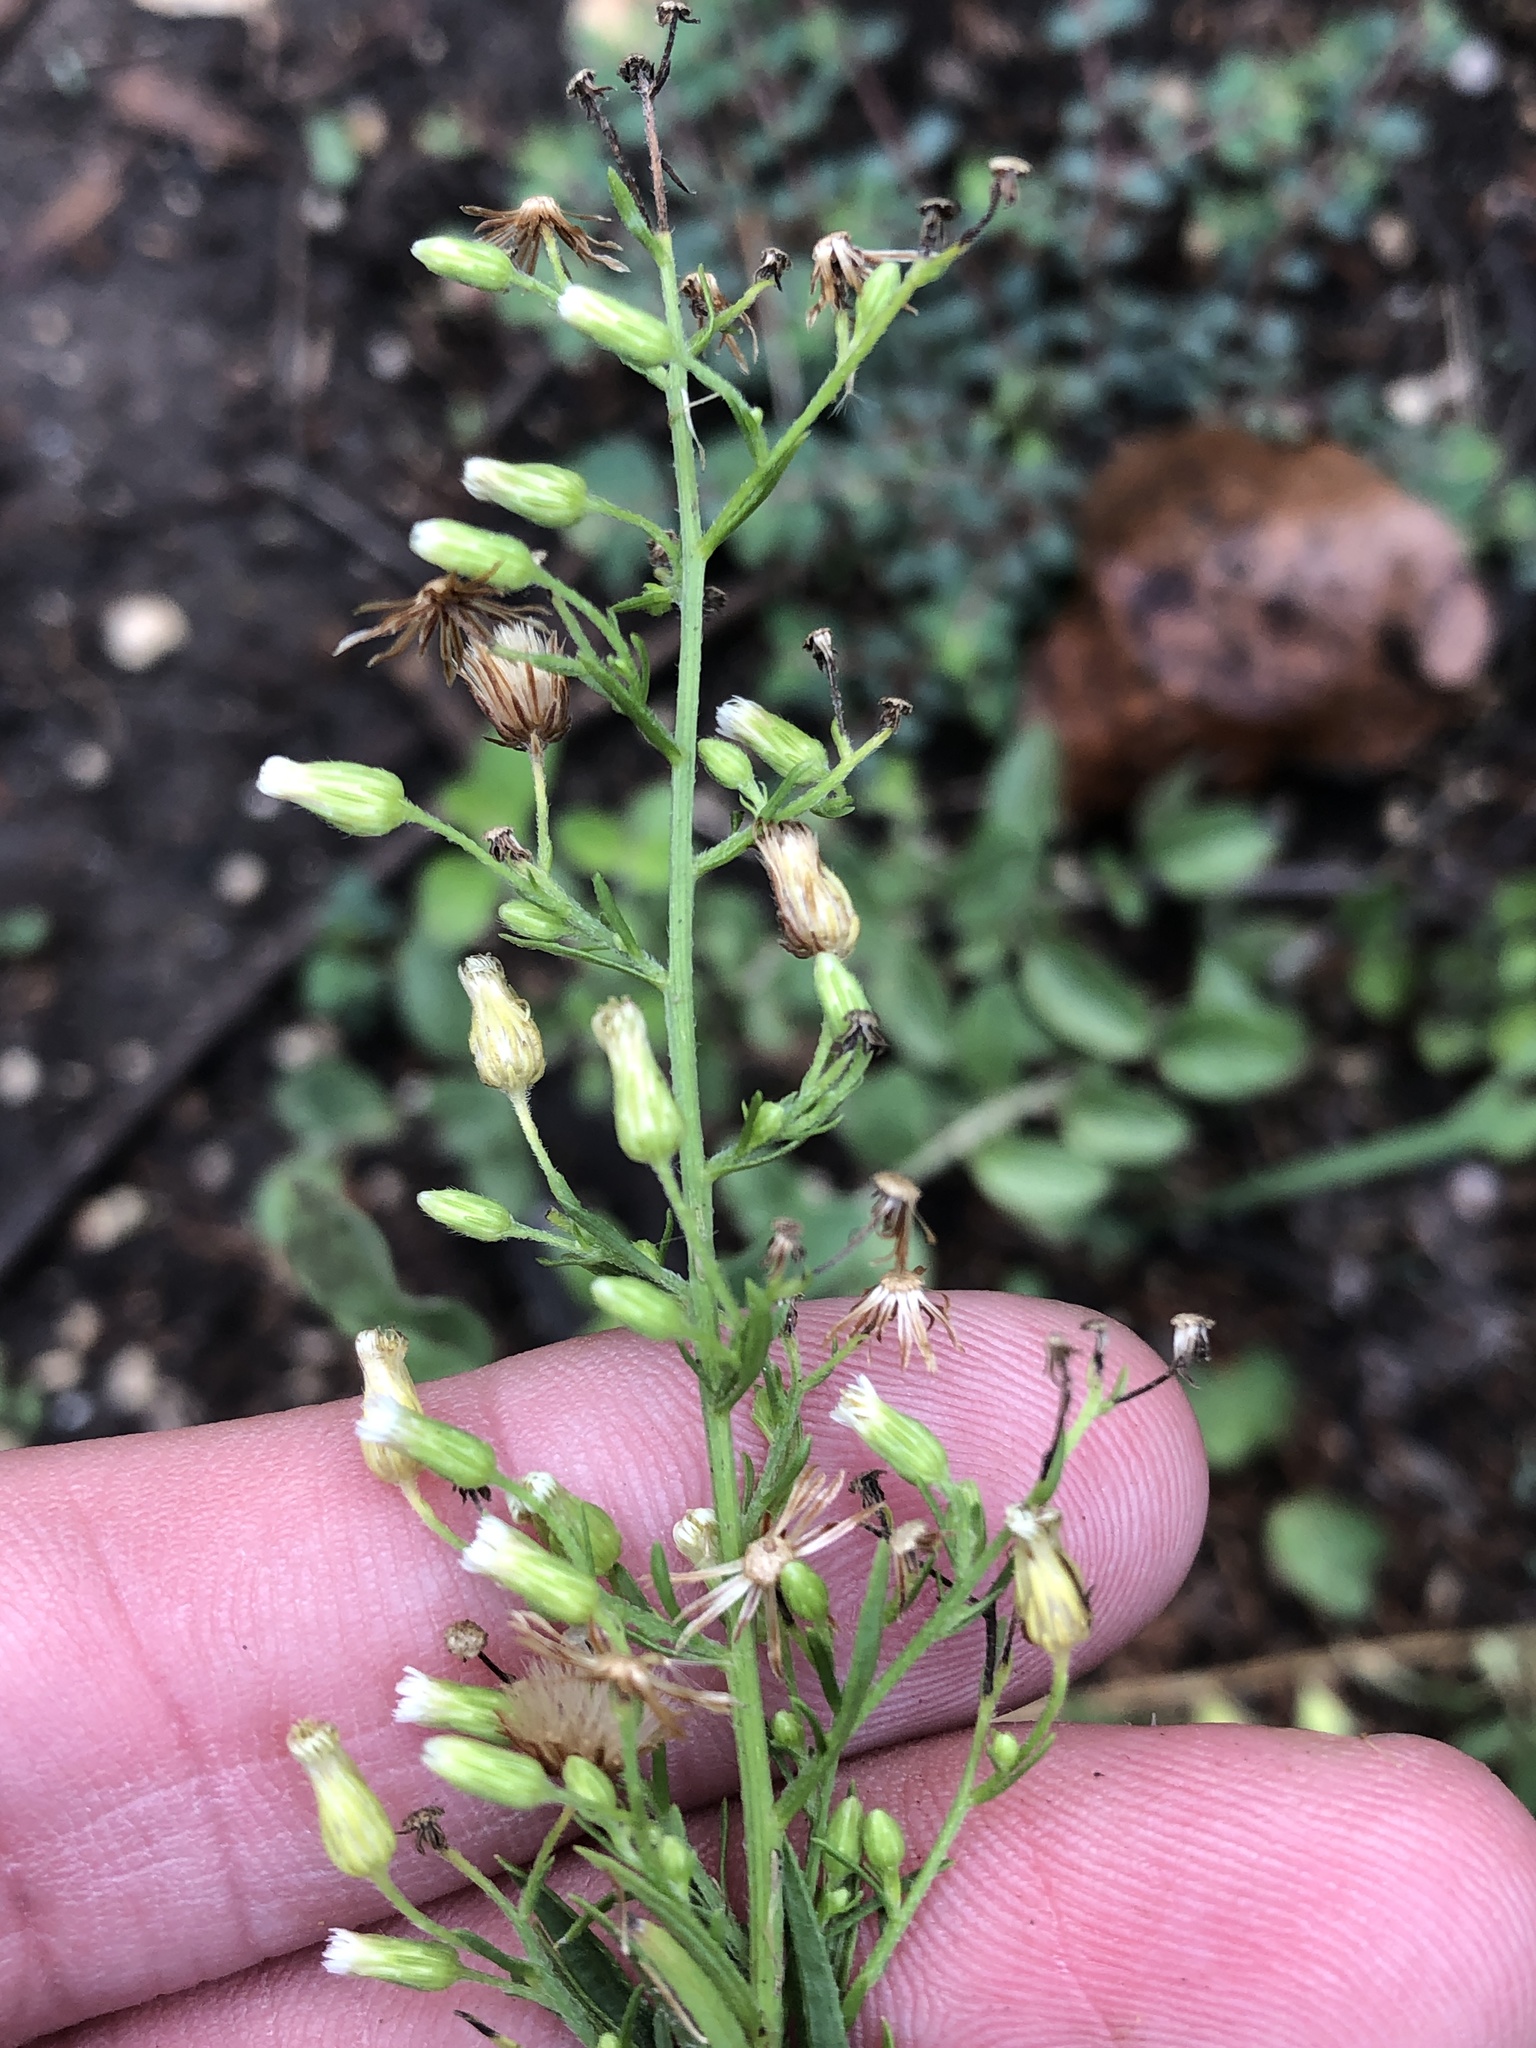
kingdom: Plantae
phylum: Tracheophyta
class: Magnoliopsida
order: Asterales
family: Asteraceae
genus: Erigeron
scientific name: Erigeron canadensis
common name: Canadian fleabane
